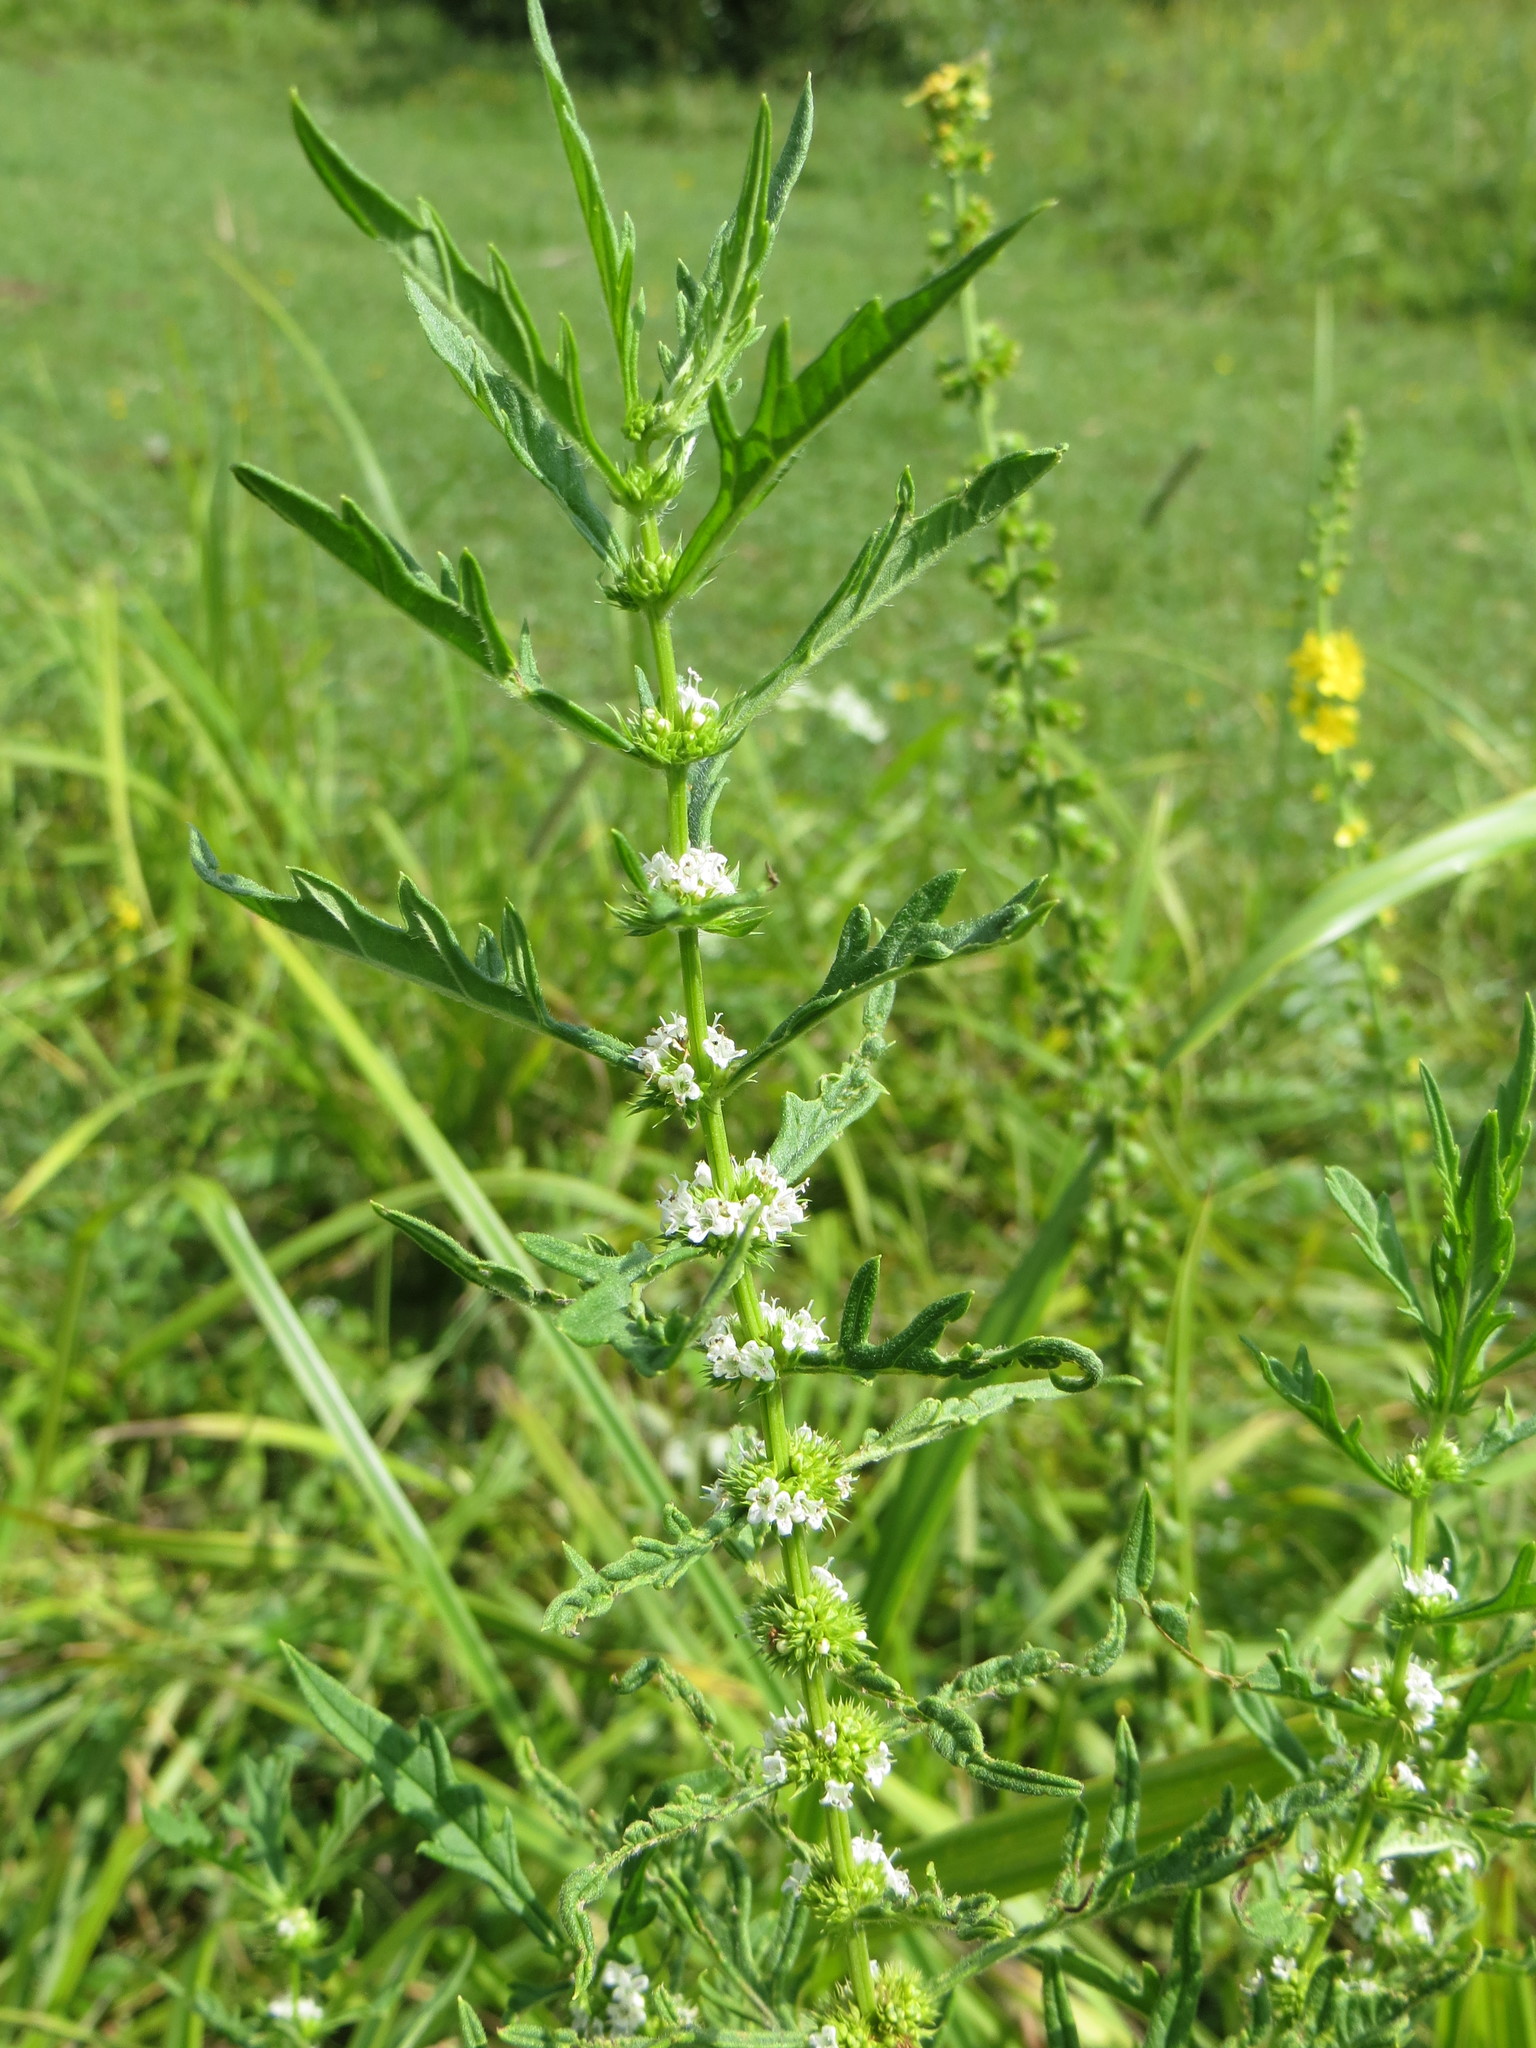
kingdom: Plantae
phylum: Tracheophyta
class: Magnoliopsida
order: Lamiales
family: Lamiaceae
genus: Lycopus
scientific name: Lycopus exaltatus
